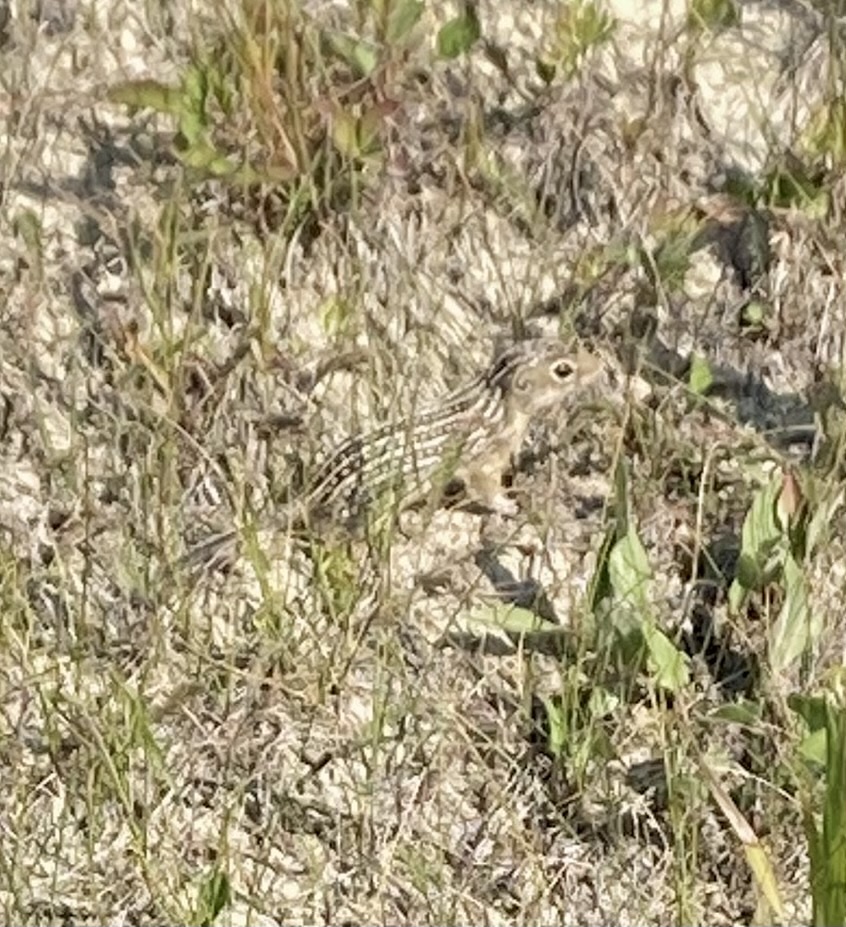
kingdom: Animalia
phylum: Chordata
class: Mammalia
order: Rodentia
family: Sciuridae
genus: Ictidomys
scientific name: Ictidomys tridecemlineatus
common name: Thirteen-lined ground squirrel
